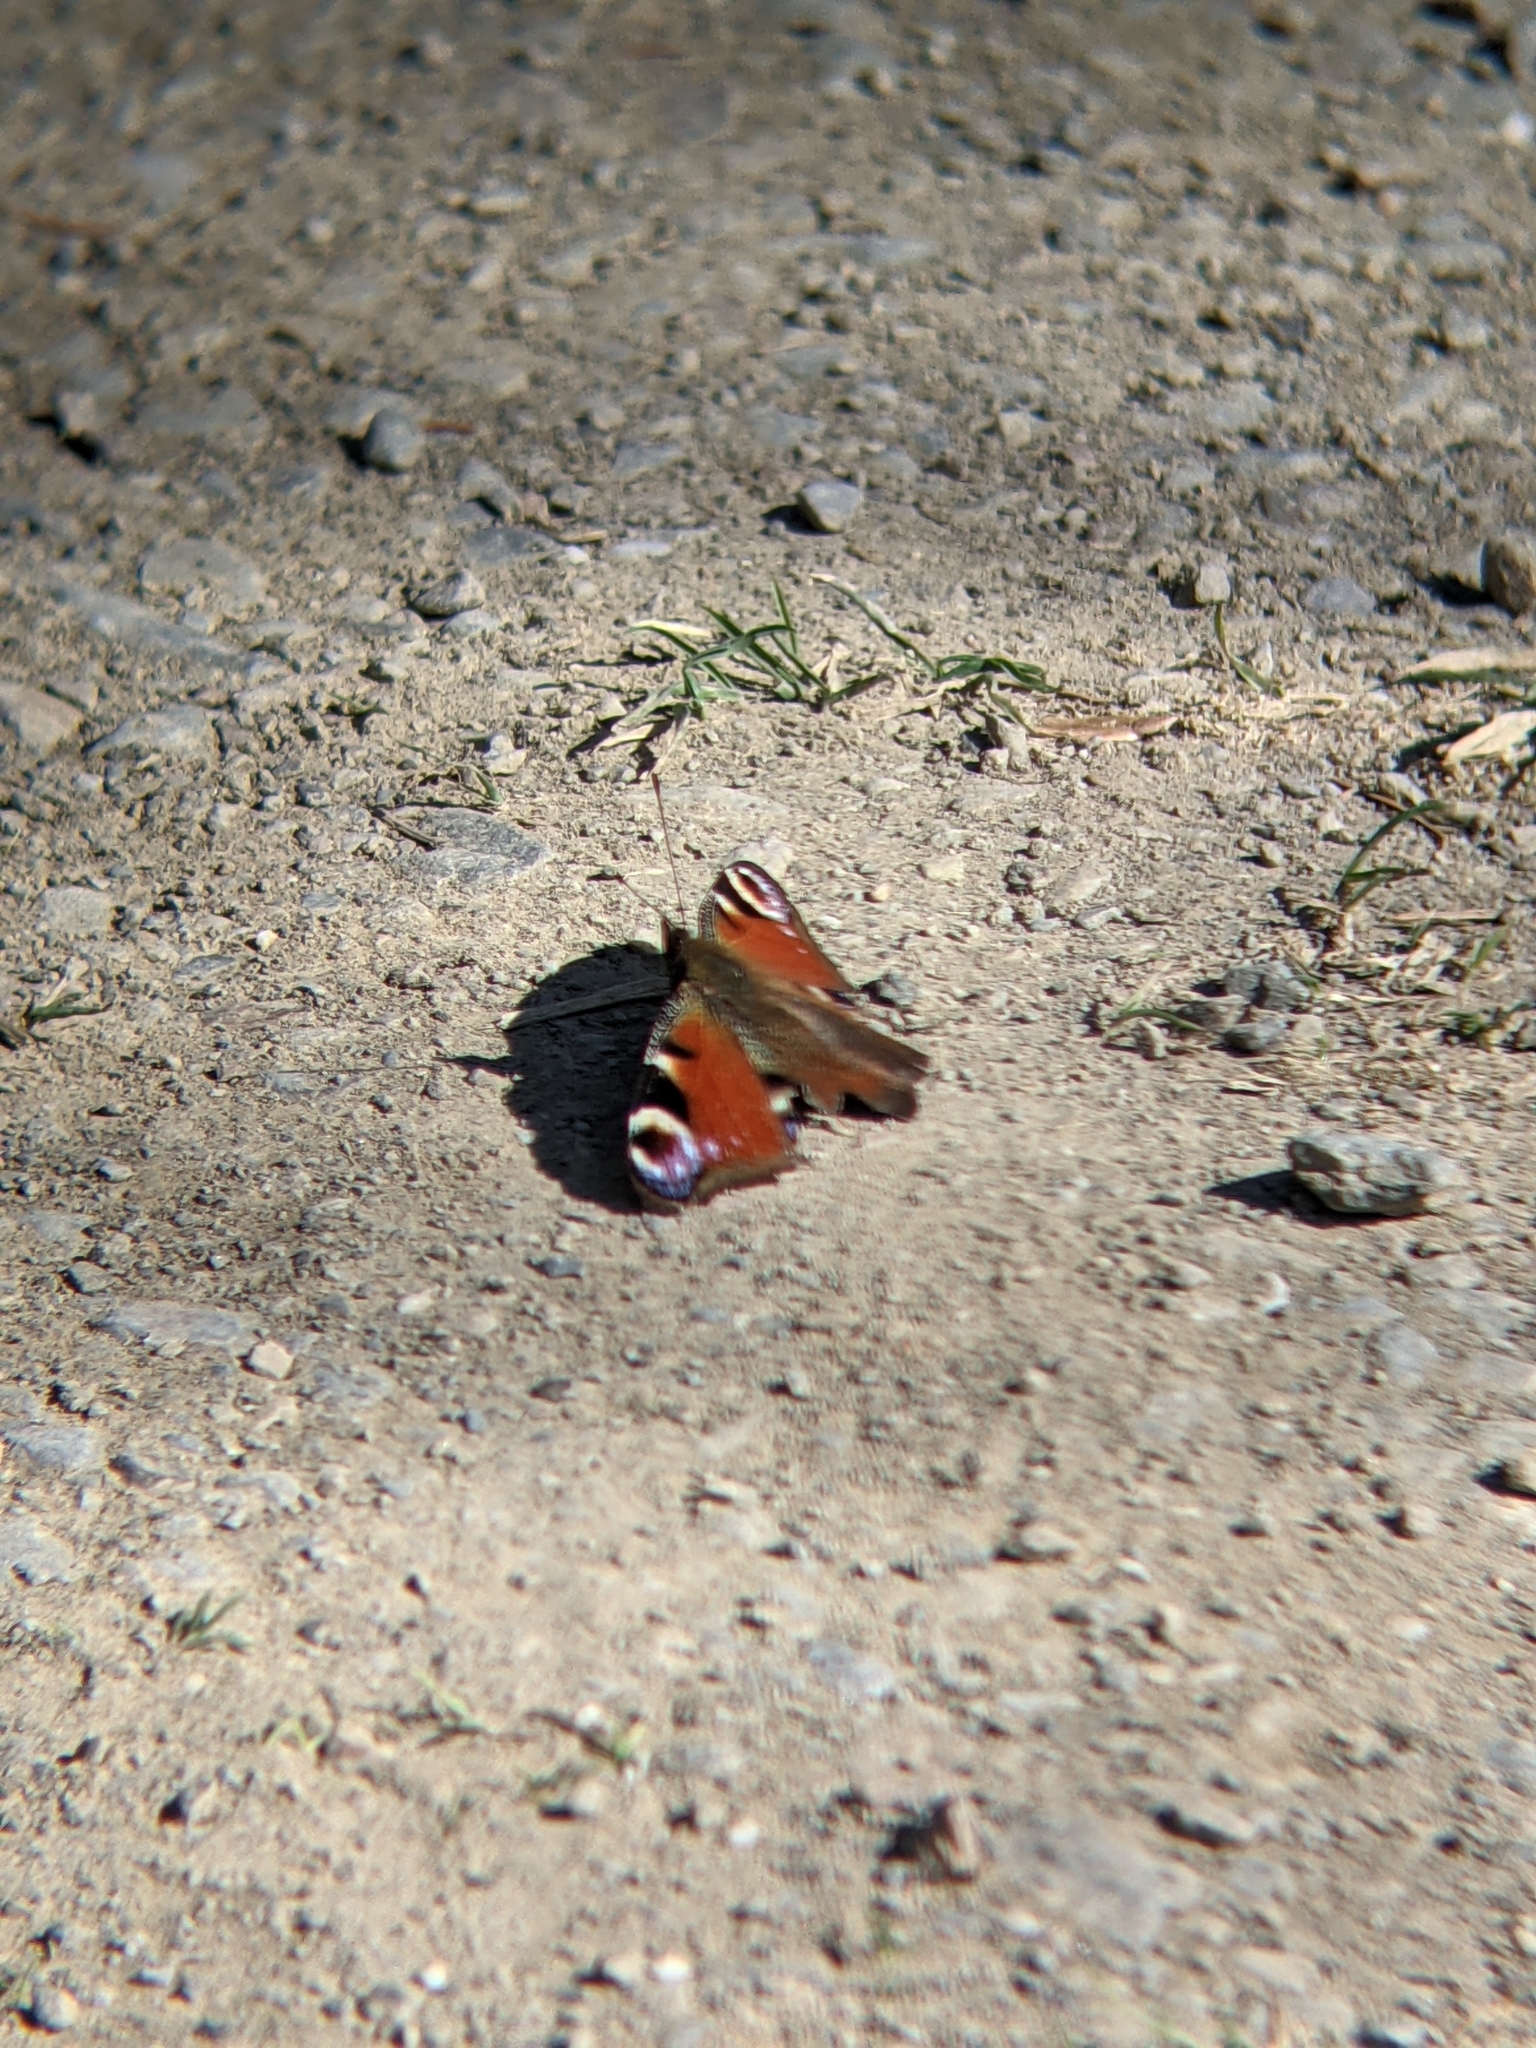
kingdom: Animalia
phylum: Arthropoda
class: Insecta
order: Lepidoptera
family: Nymphalidae
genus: Aglais
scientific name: Aglais io
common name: Peacock
